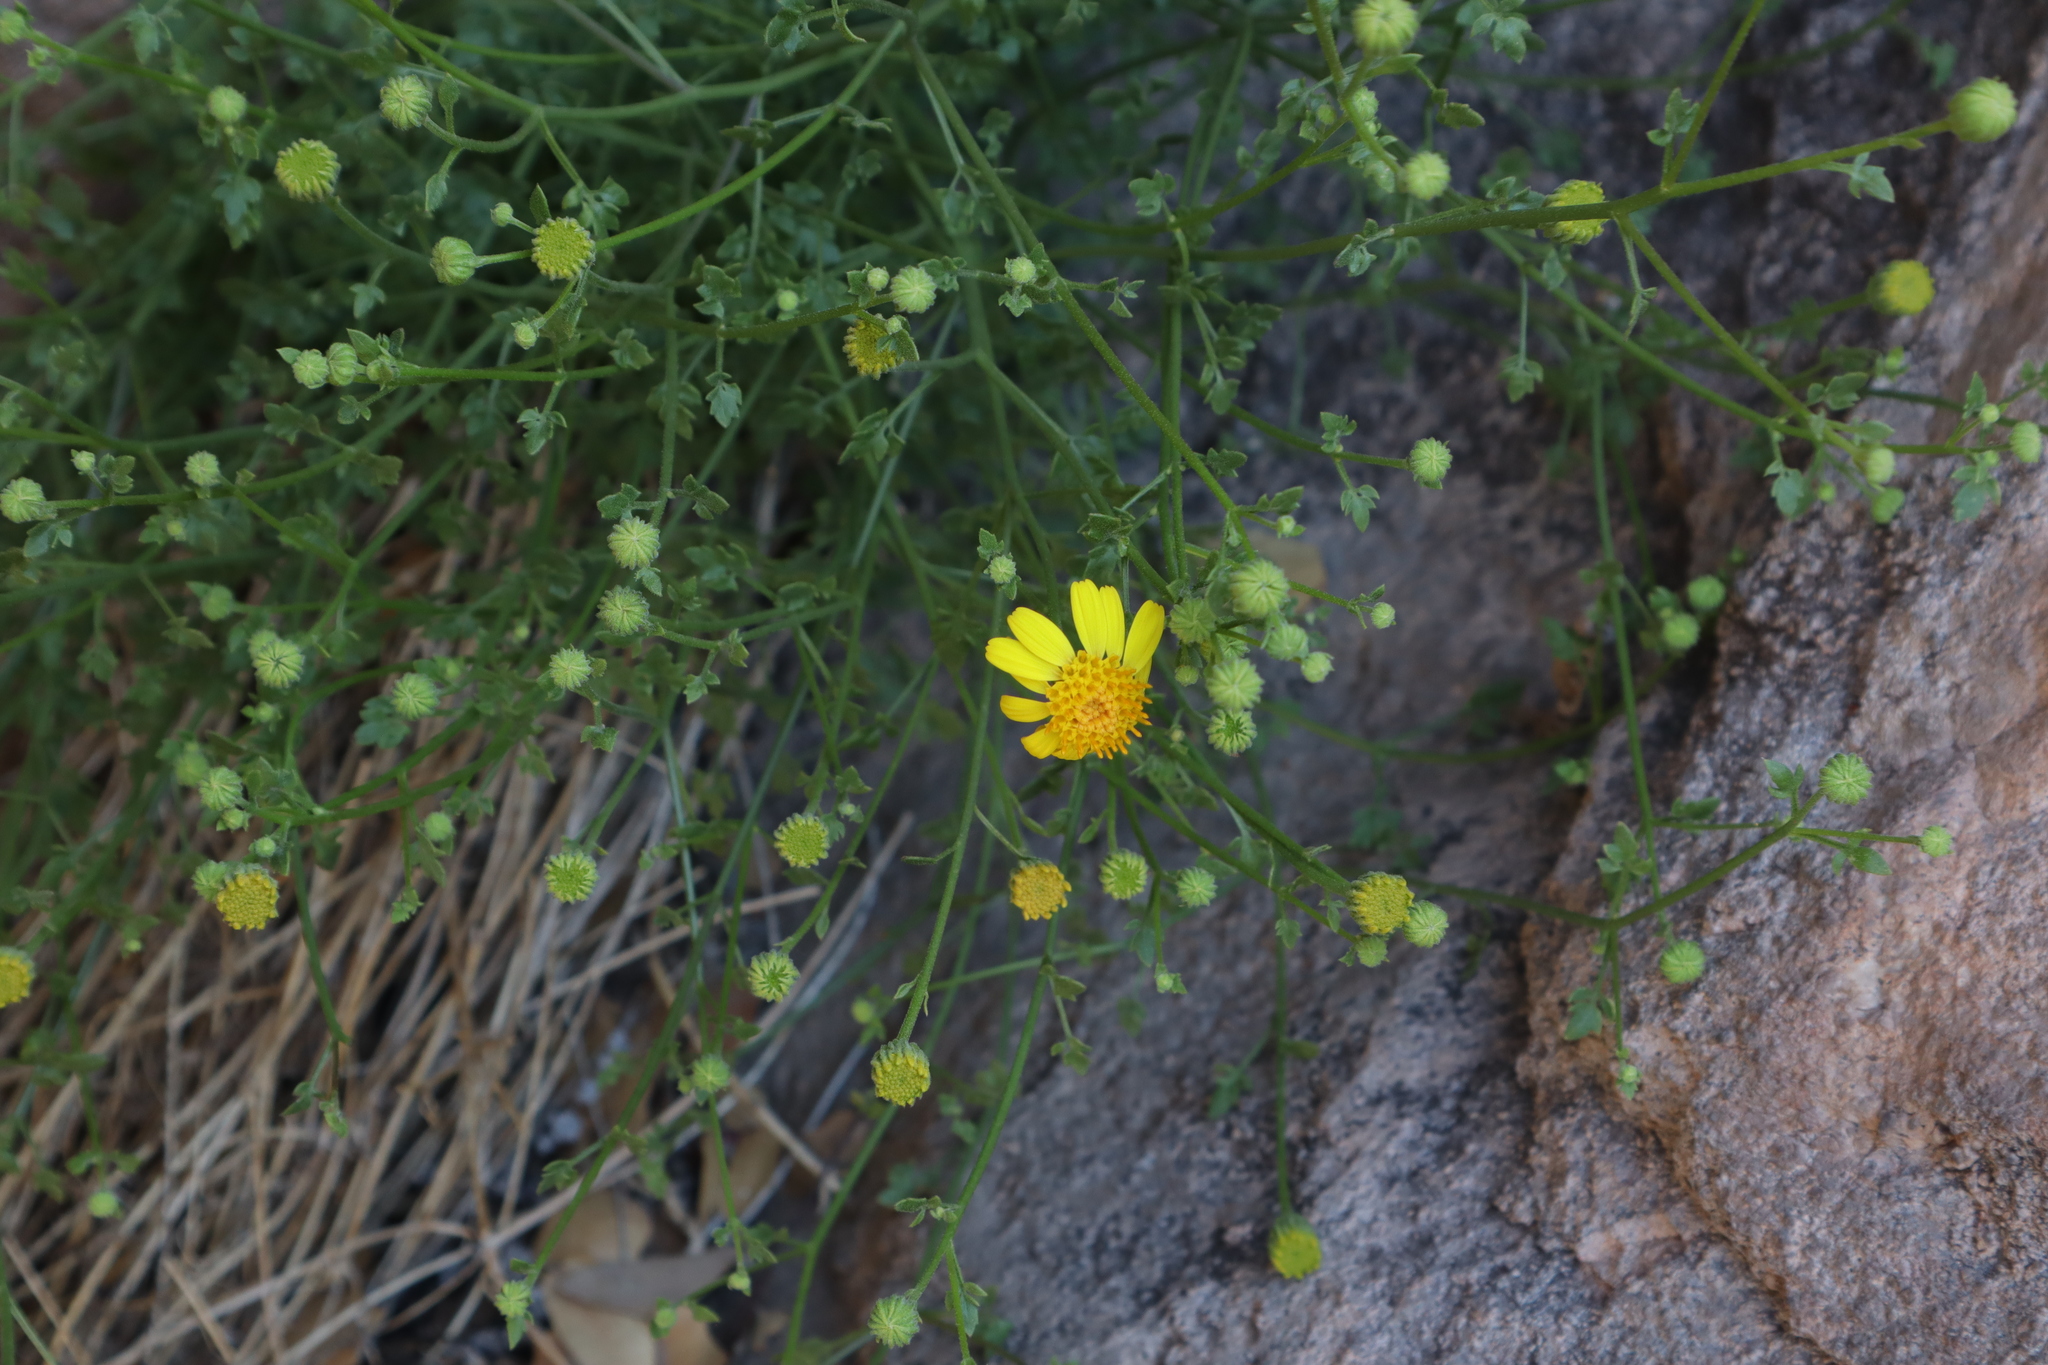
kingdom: Plantae
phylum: Tracheophyta
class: Magnoliopsida
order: Asterales
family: Asteraceae
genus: Laphamia
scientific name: Laphamia gilensis
